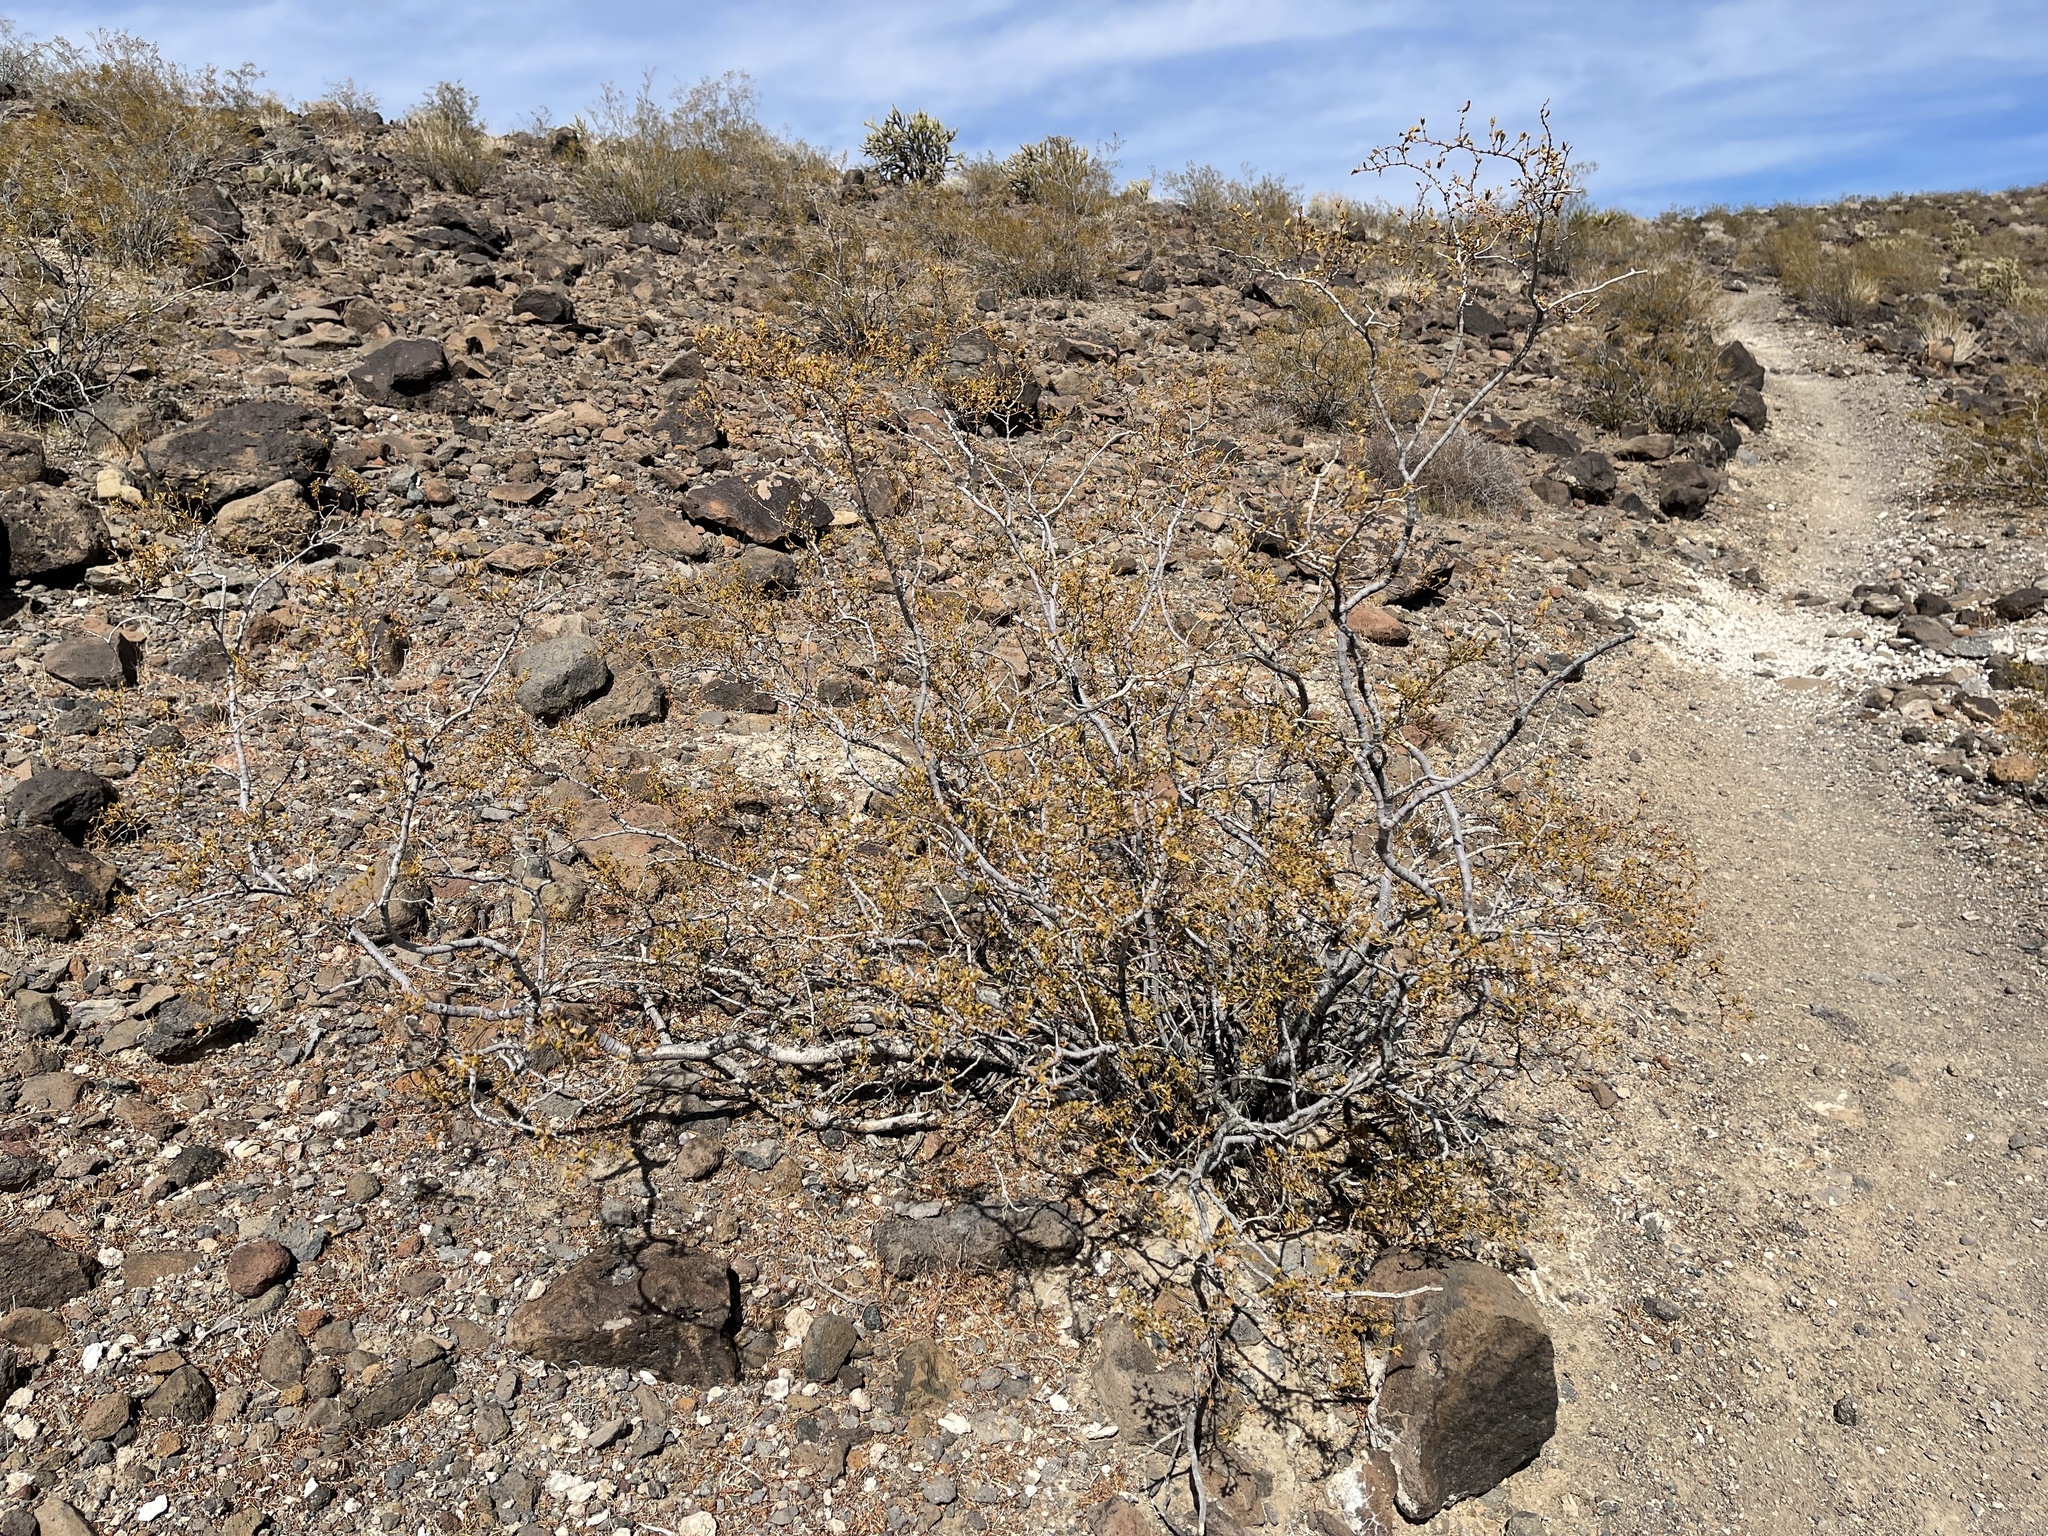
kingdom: Plantae
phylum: Tracheophyta
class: Magnoliopsida
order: Zygophyllales
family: Zygophyllaceae
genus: Larrea
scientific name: Larrea tridentata
